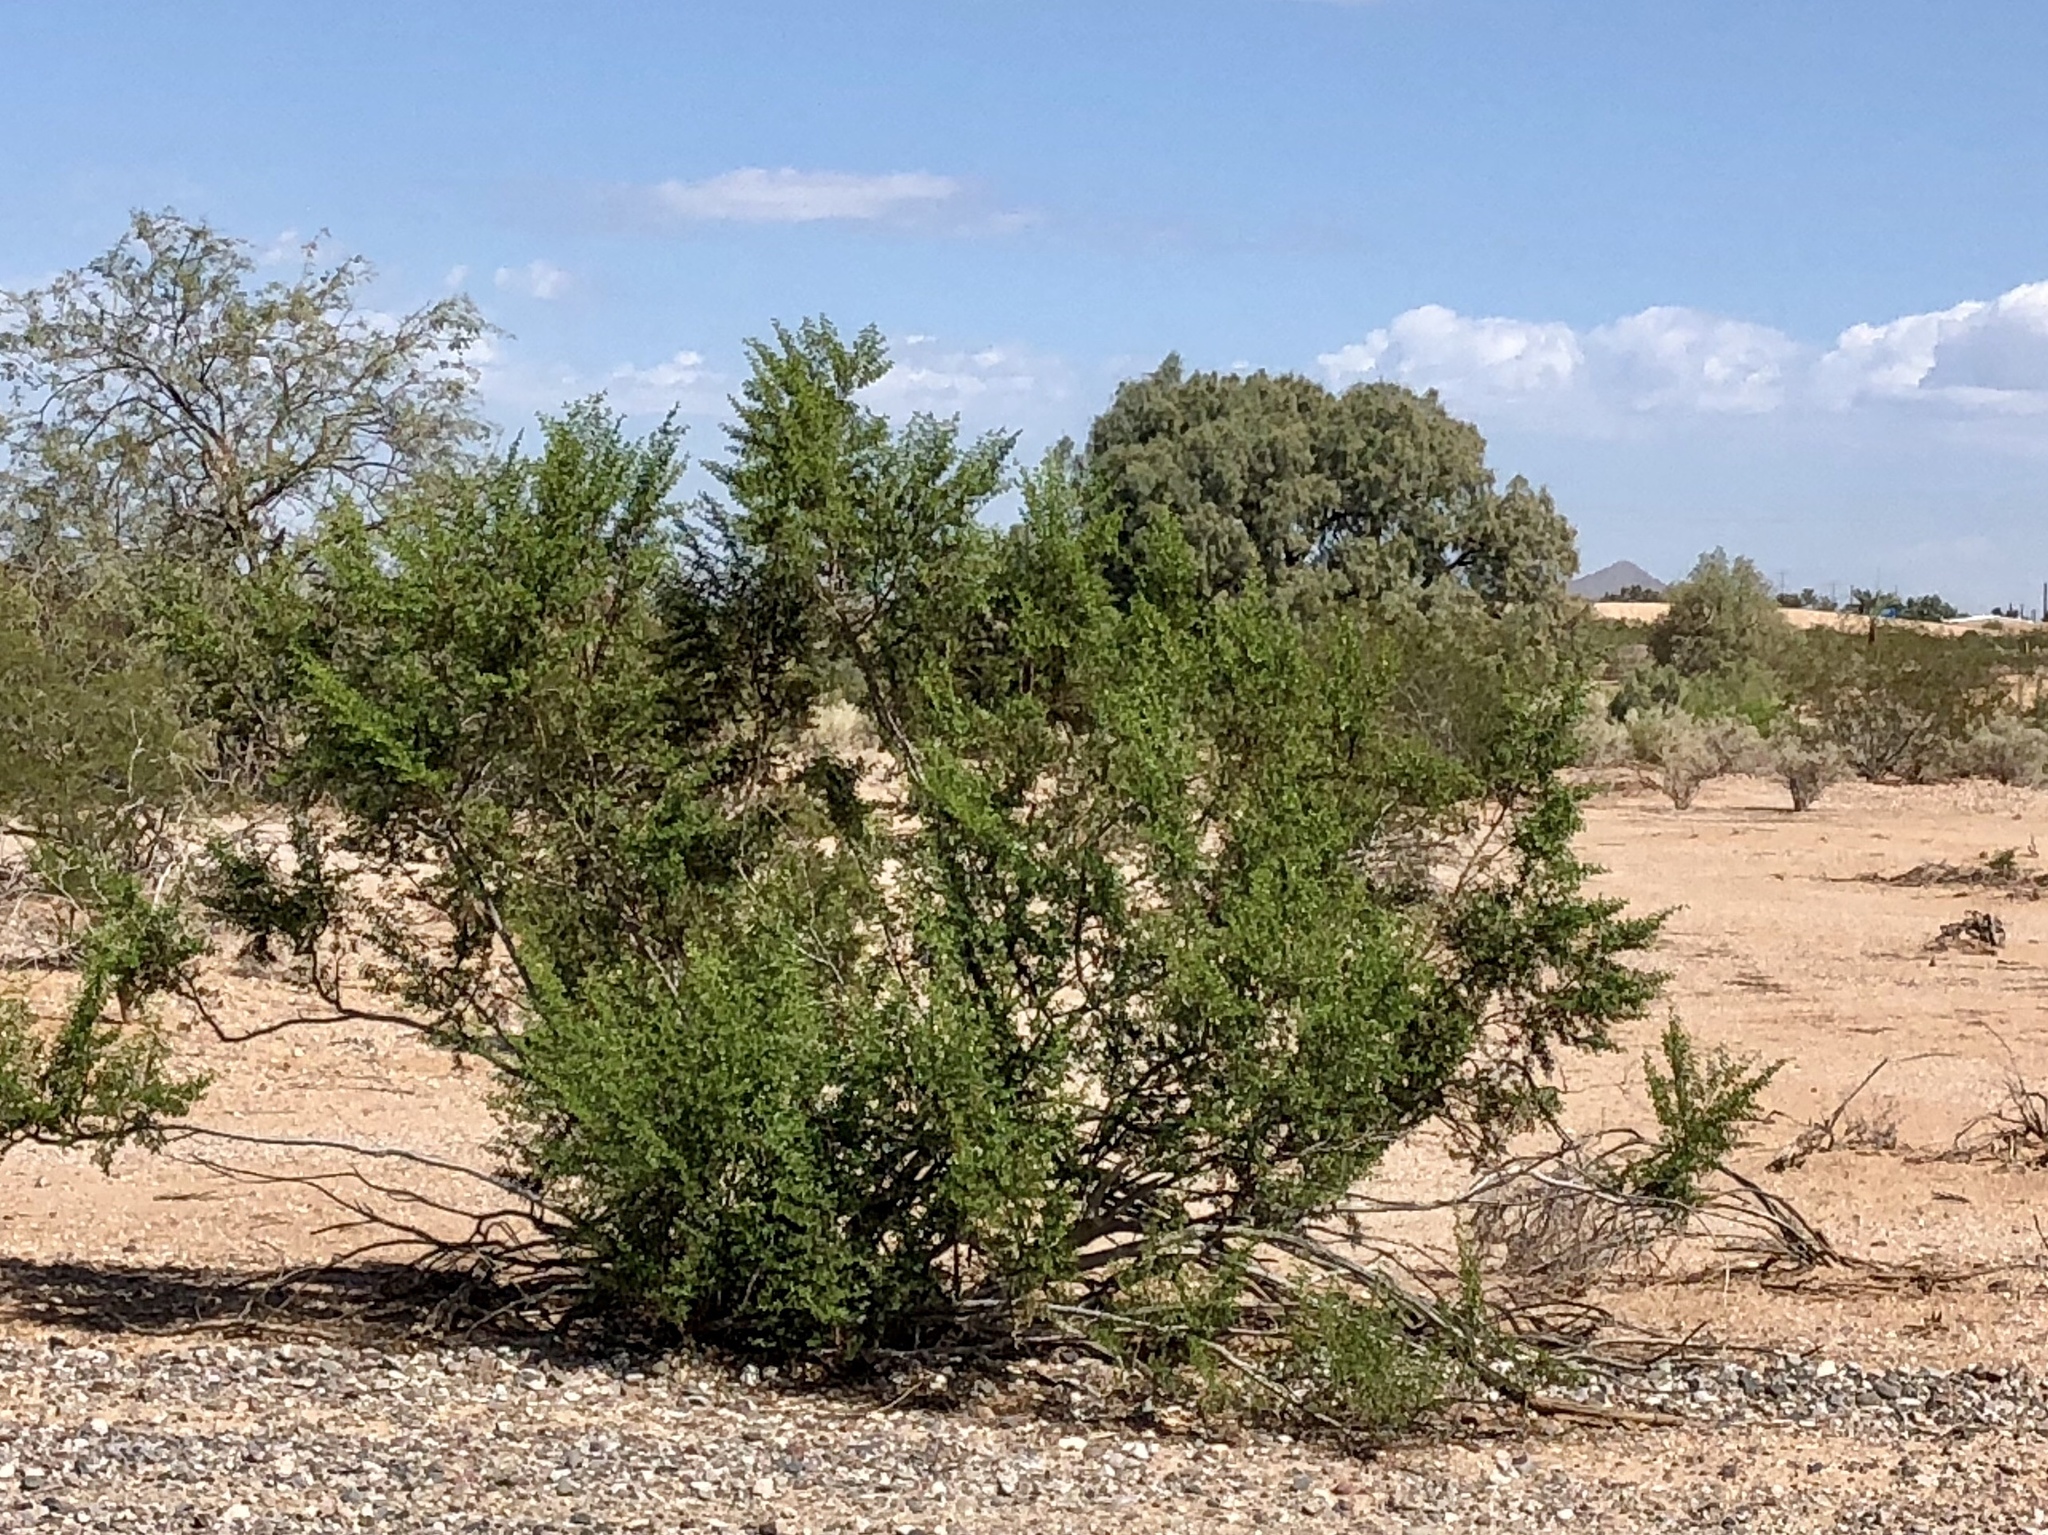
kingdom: Plantae
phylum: Tracheophyta
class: Magnoliopsida
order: Zygophyllales
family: Zygophyllaceae
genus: Larrea
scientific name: Larrea tridentata
